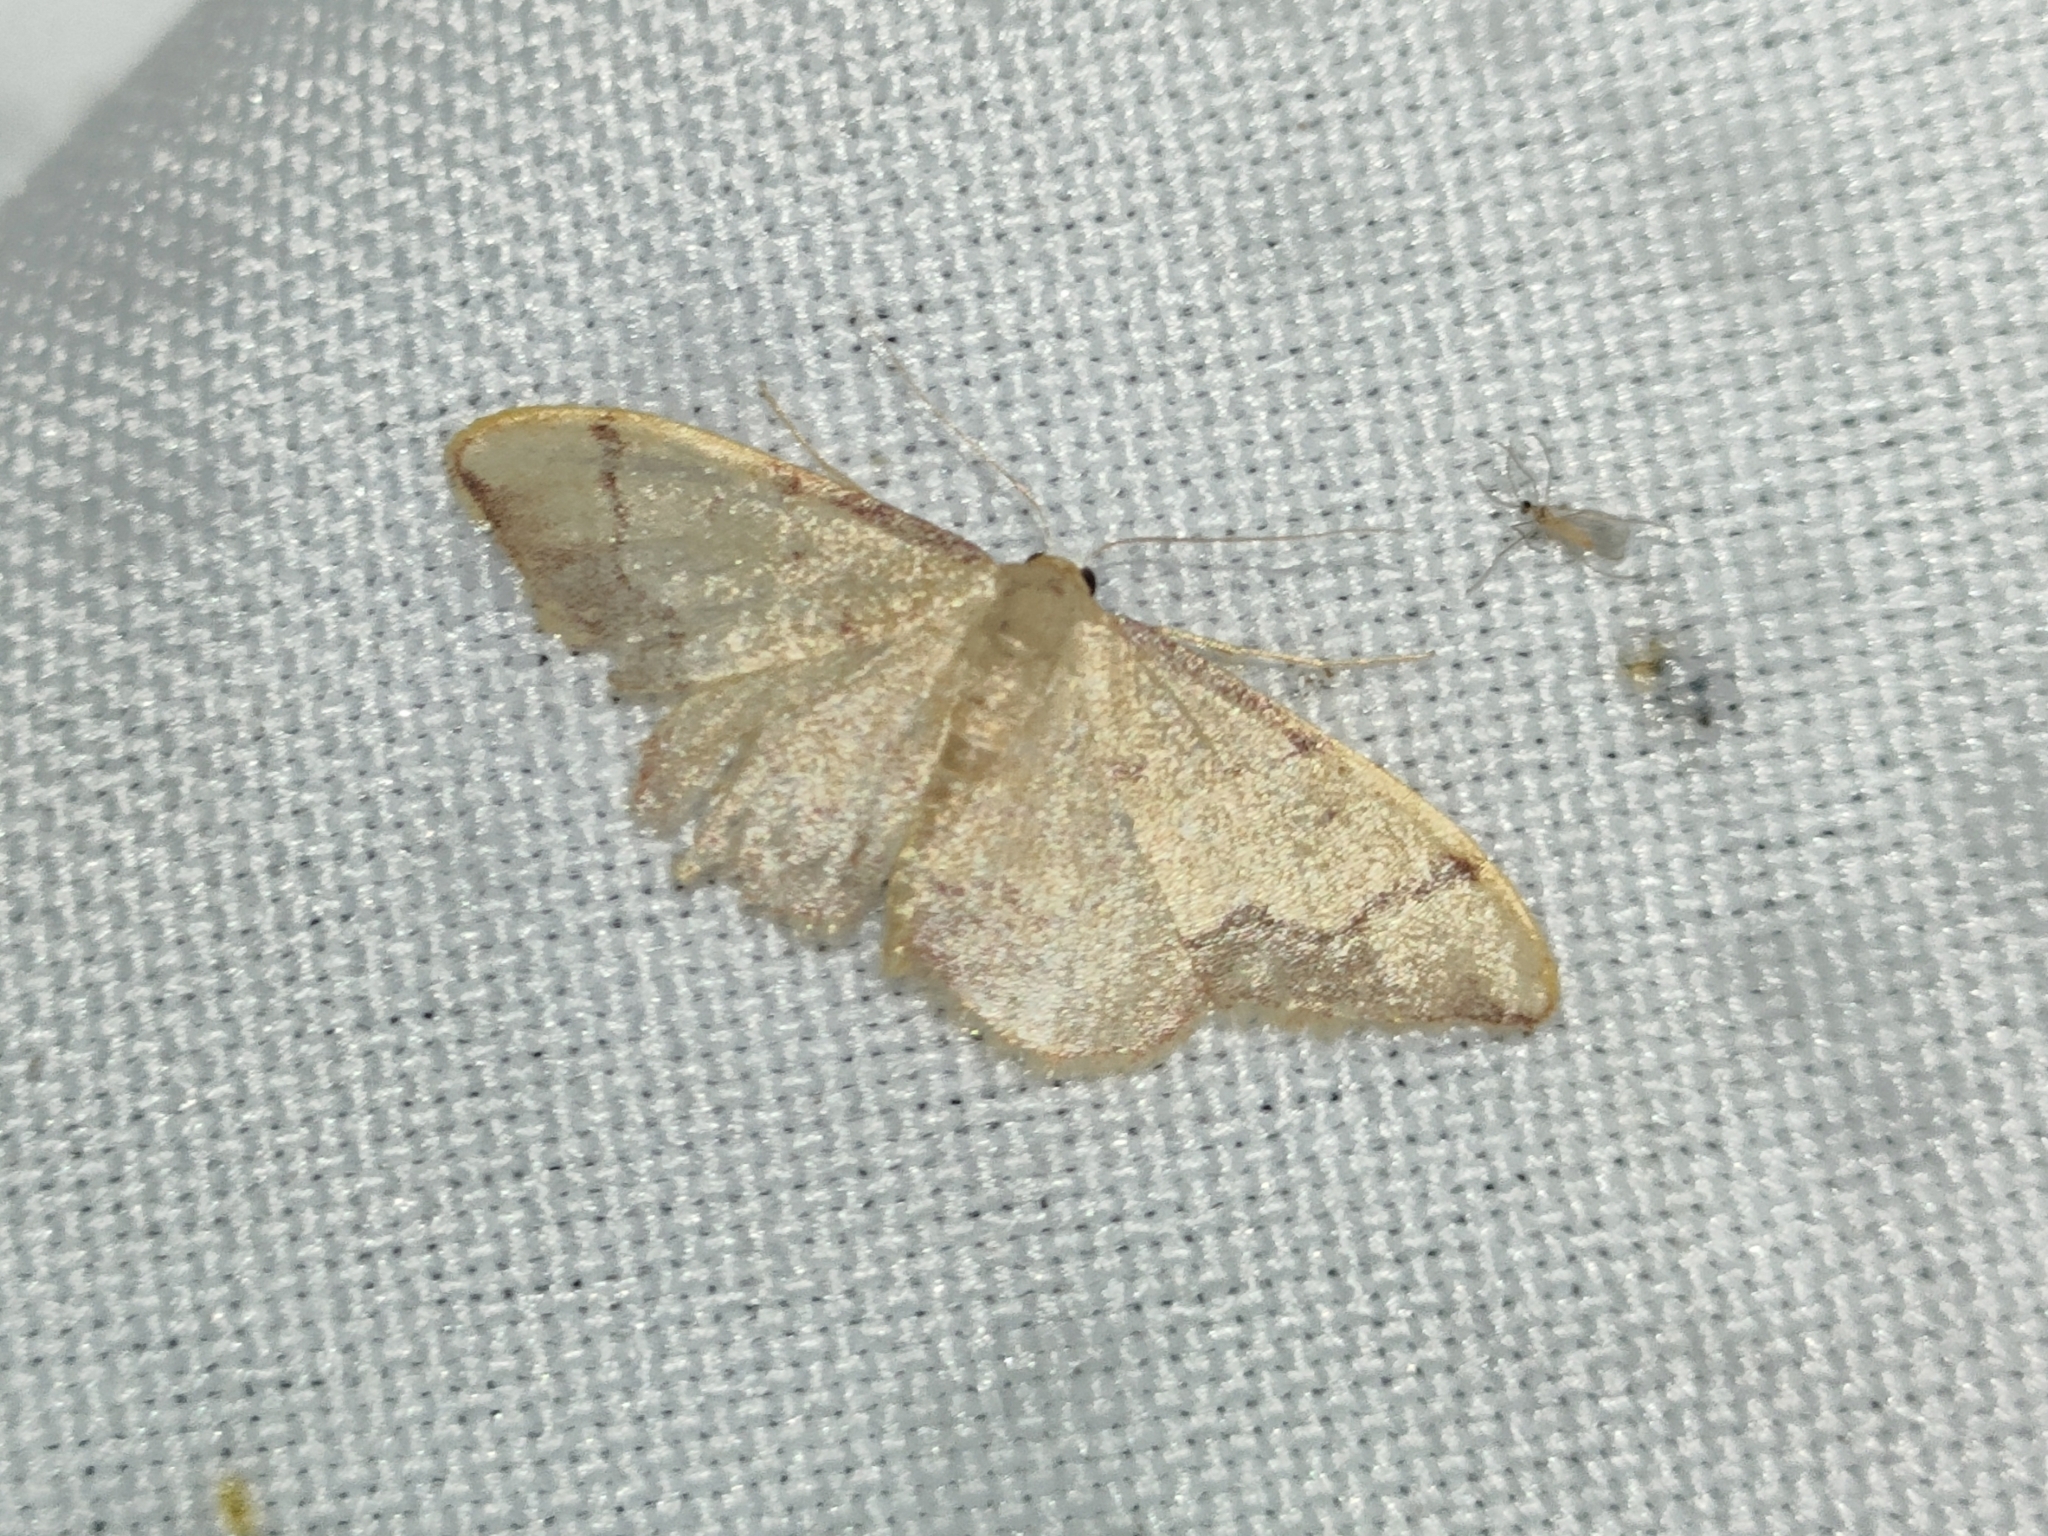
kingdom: Animalia
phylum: Arthropoda
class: Insecta
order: Lepidoptera
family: Geometridae
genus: Idaea
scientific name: Idaea ostrinaria
